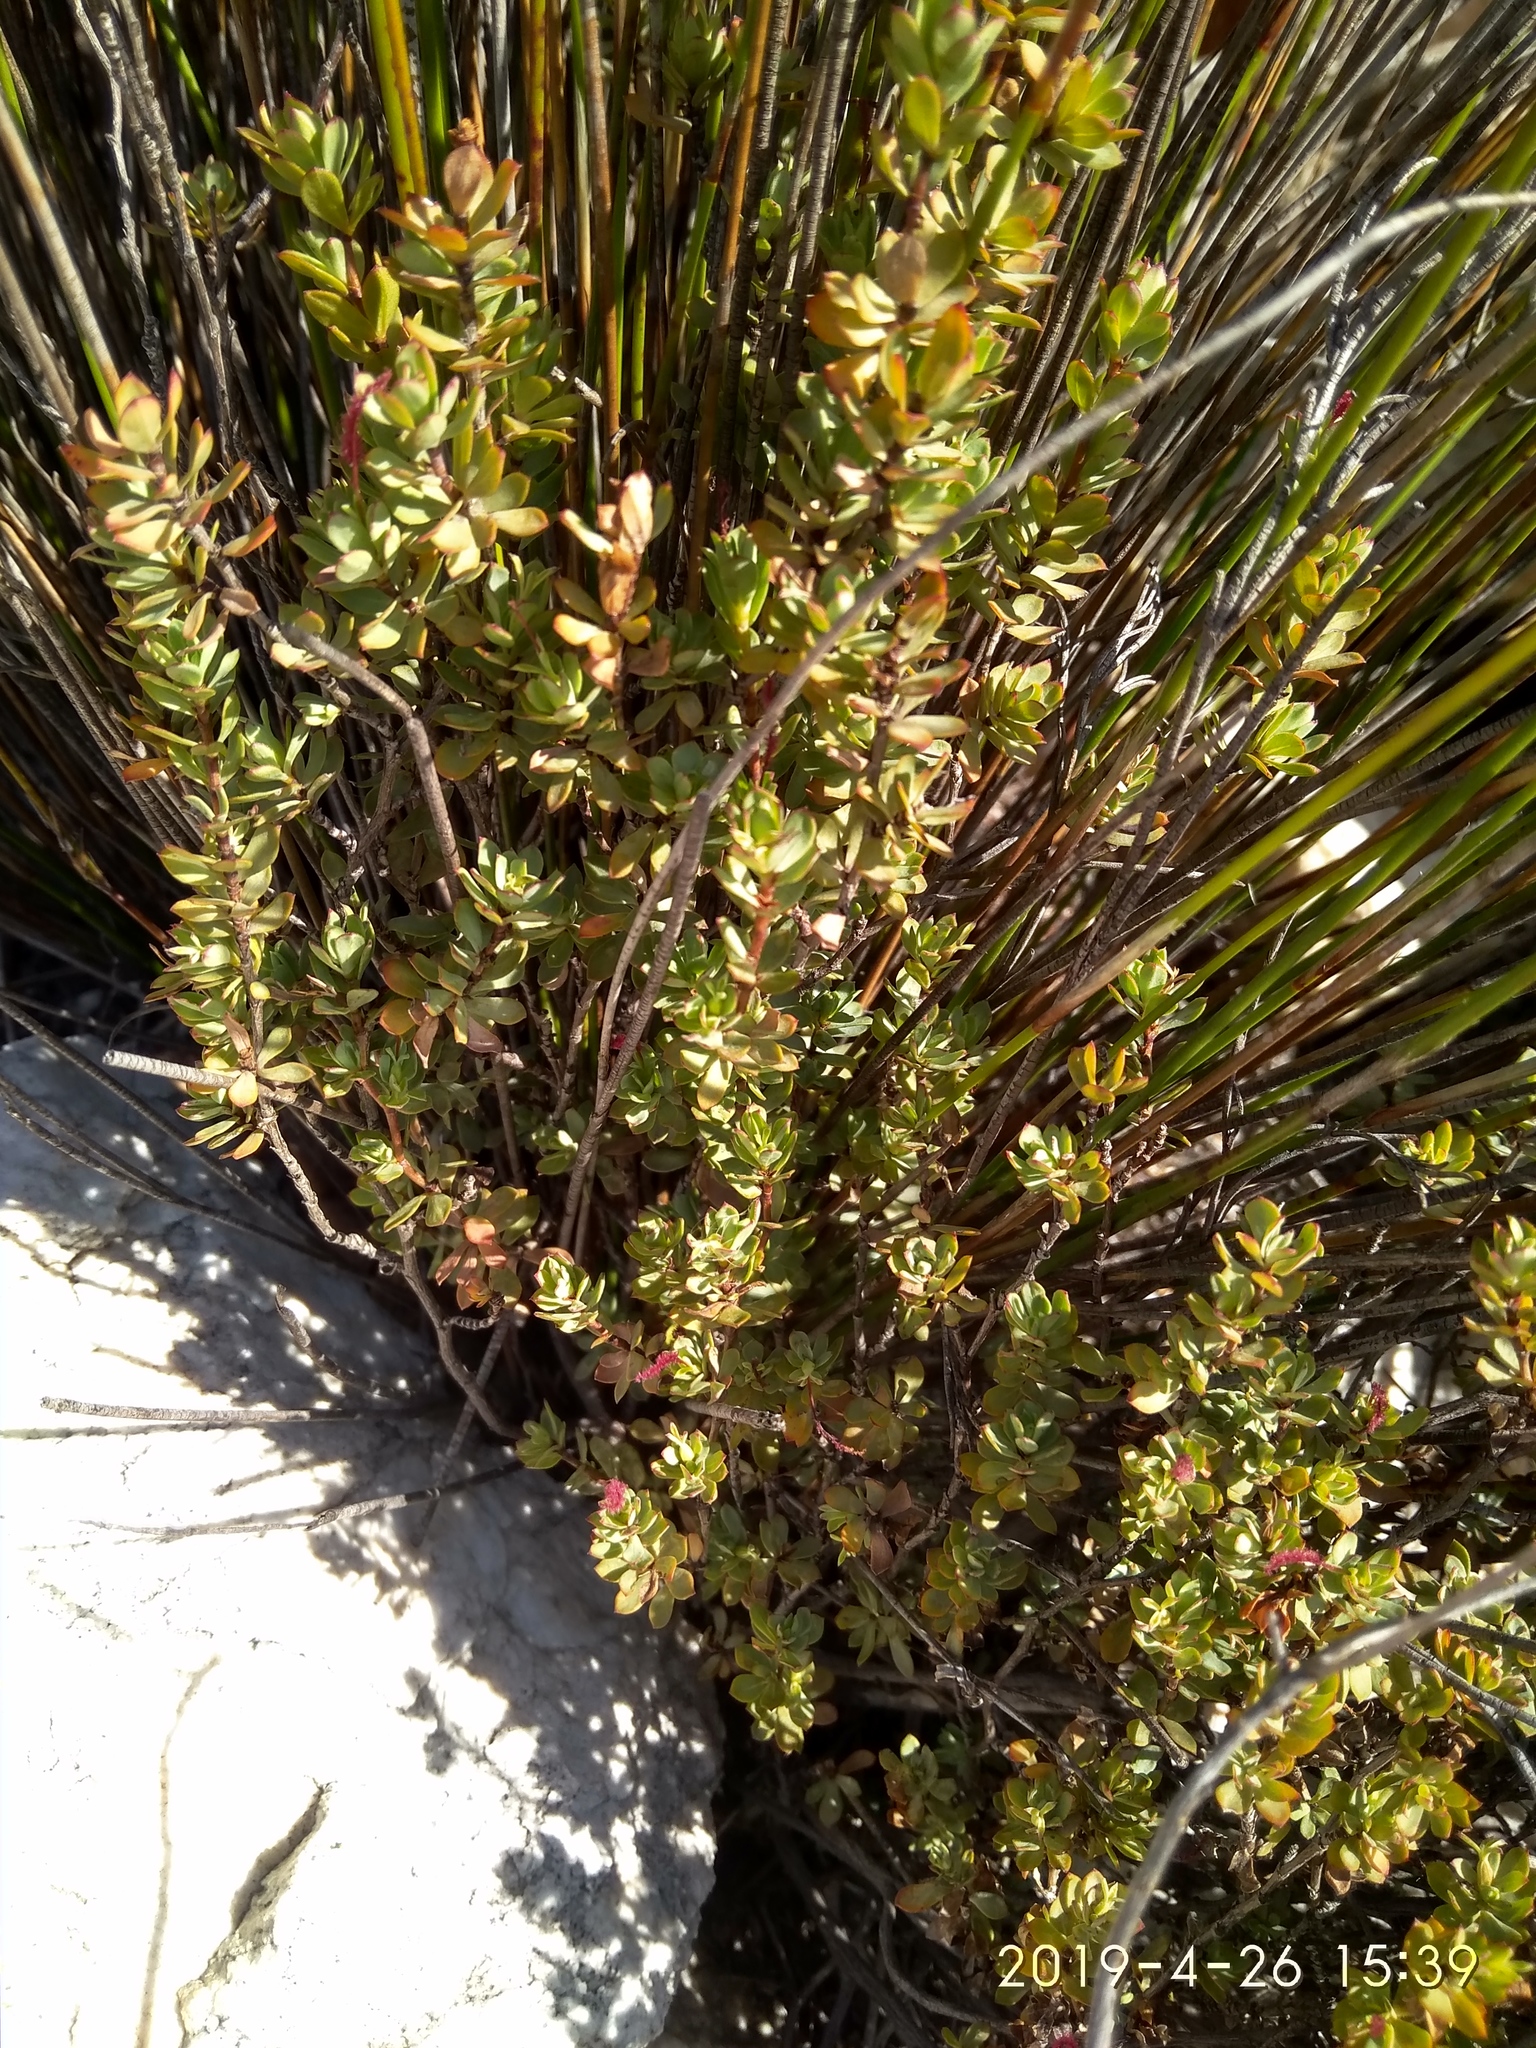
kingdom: Plantae
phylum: Tracheophyta
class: Magnoliopsida
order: Rosales
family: Rosaceae
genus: Cliffortia
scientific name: Cliffortia carinata
